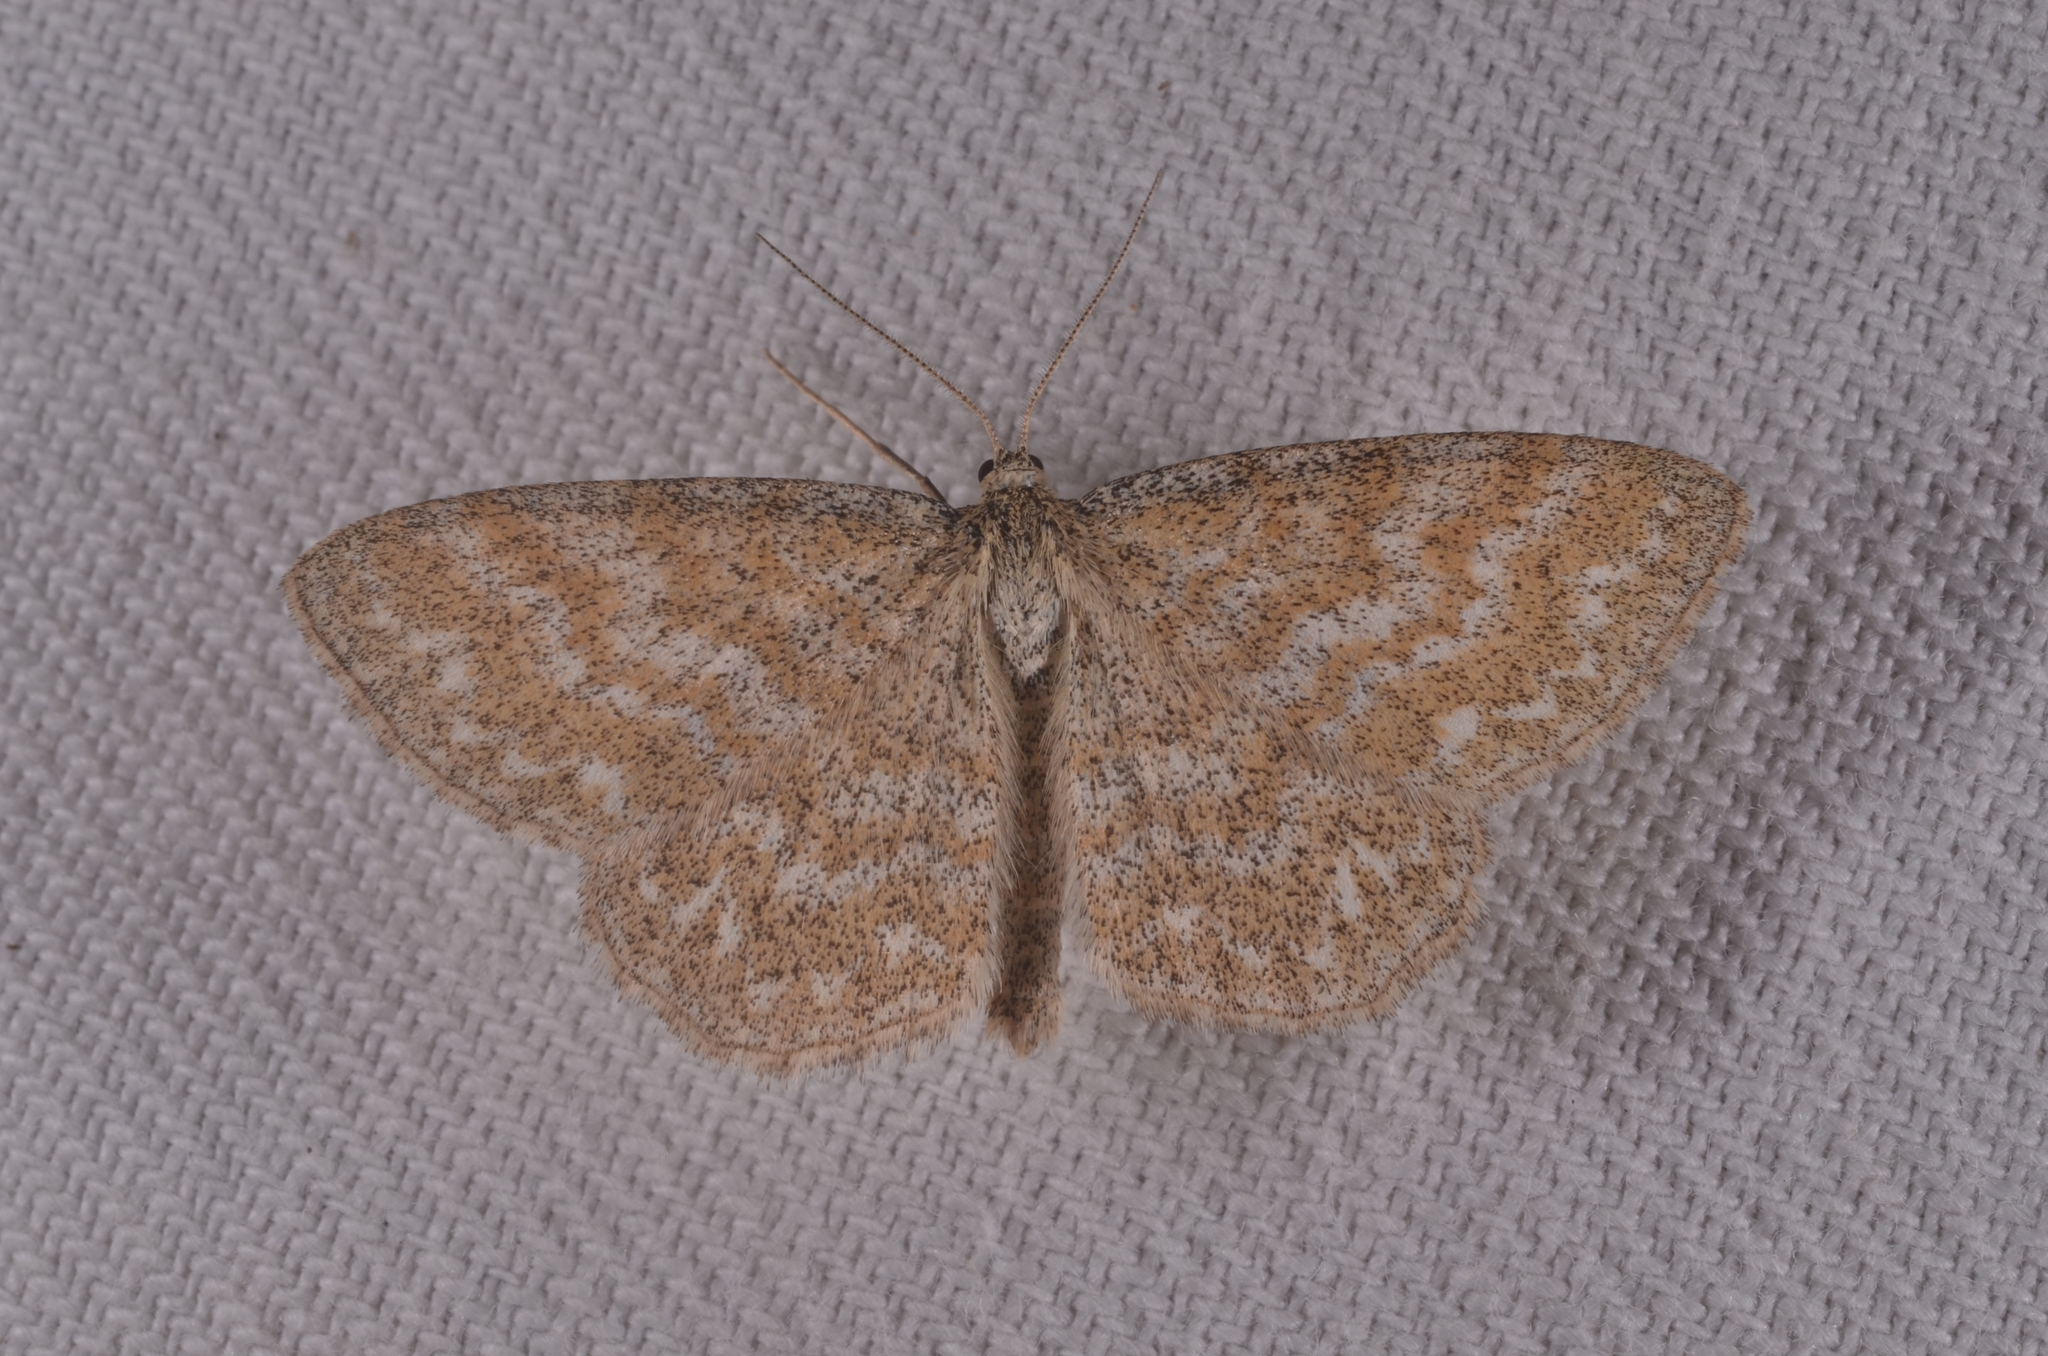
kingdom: Animalia
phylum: Arthropoda
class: Insecta
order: Lepidoptera
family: Geometridae
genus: Scopula
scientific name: Scopula immorata
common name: Lewes wave
